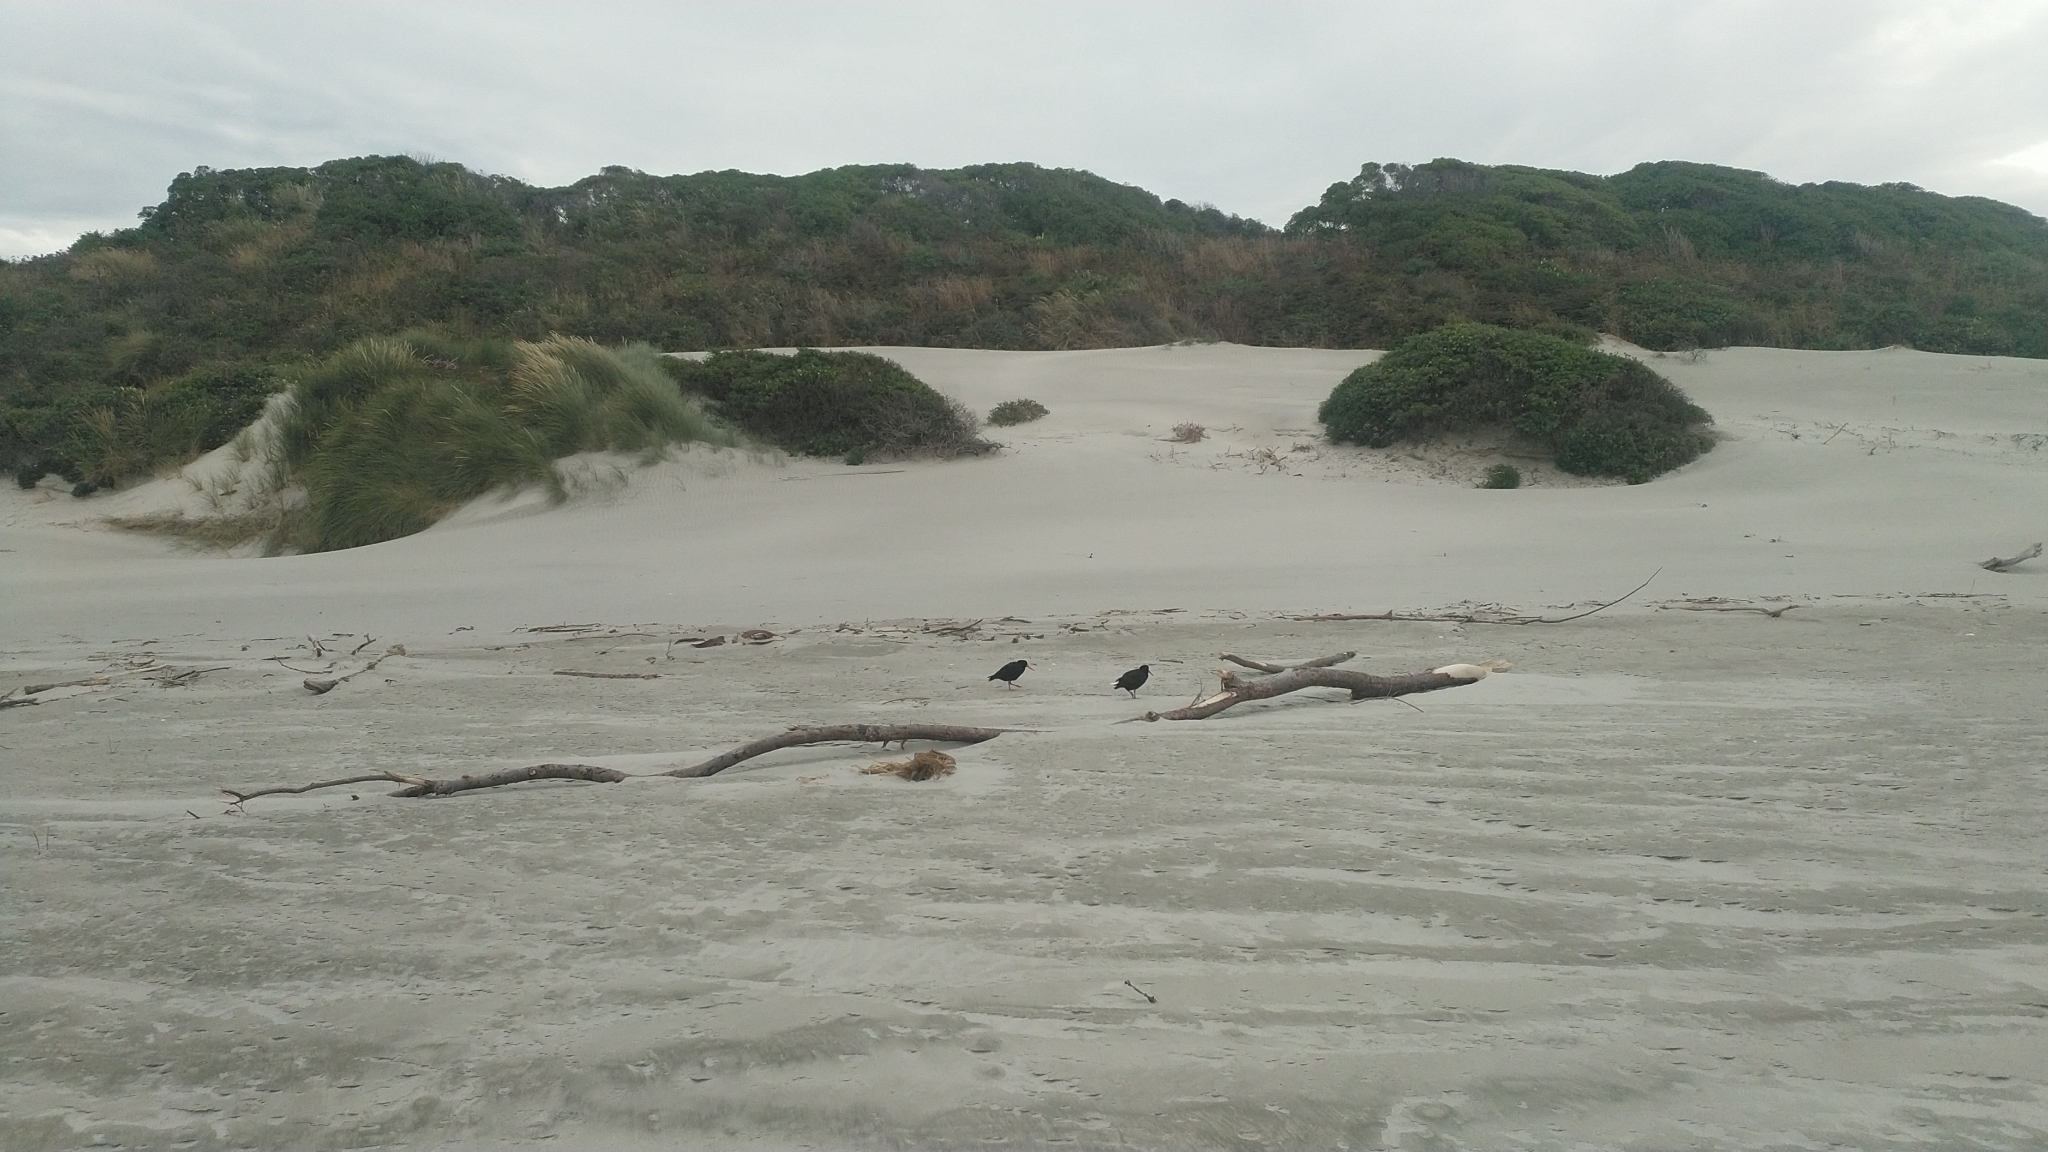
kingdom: Animalia
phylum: Chordata
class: Aves
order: Charadriiformes
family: Haematopodidae
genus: Haematopus
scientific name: Haematopus unicolor
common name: Variable oystercatcher
